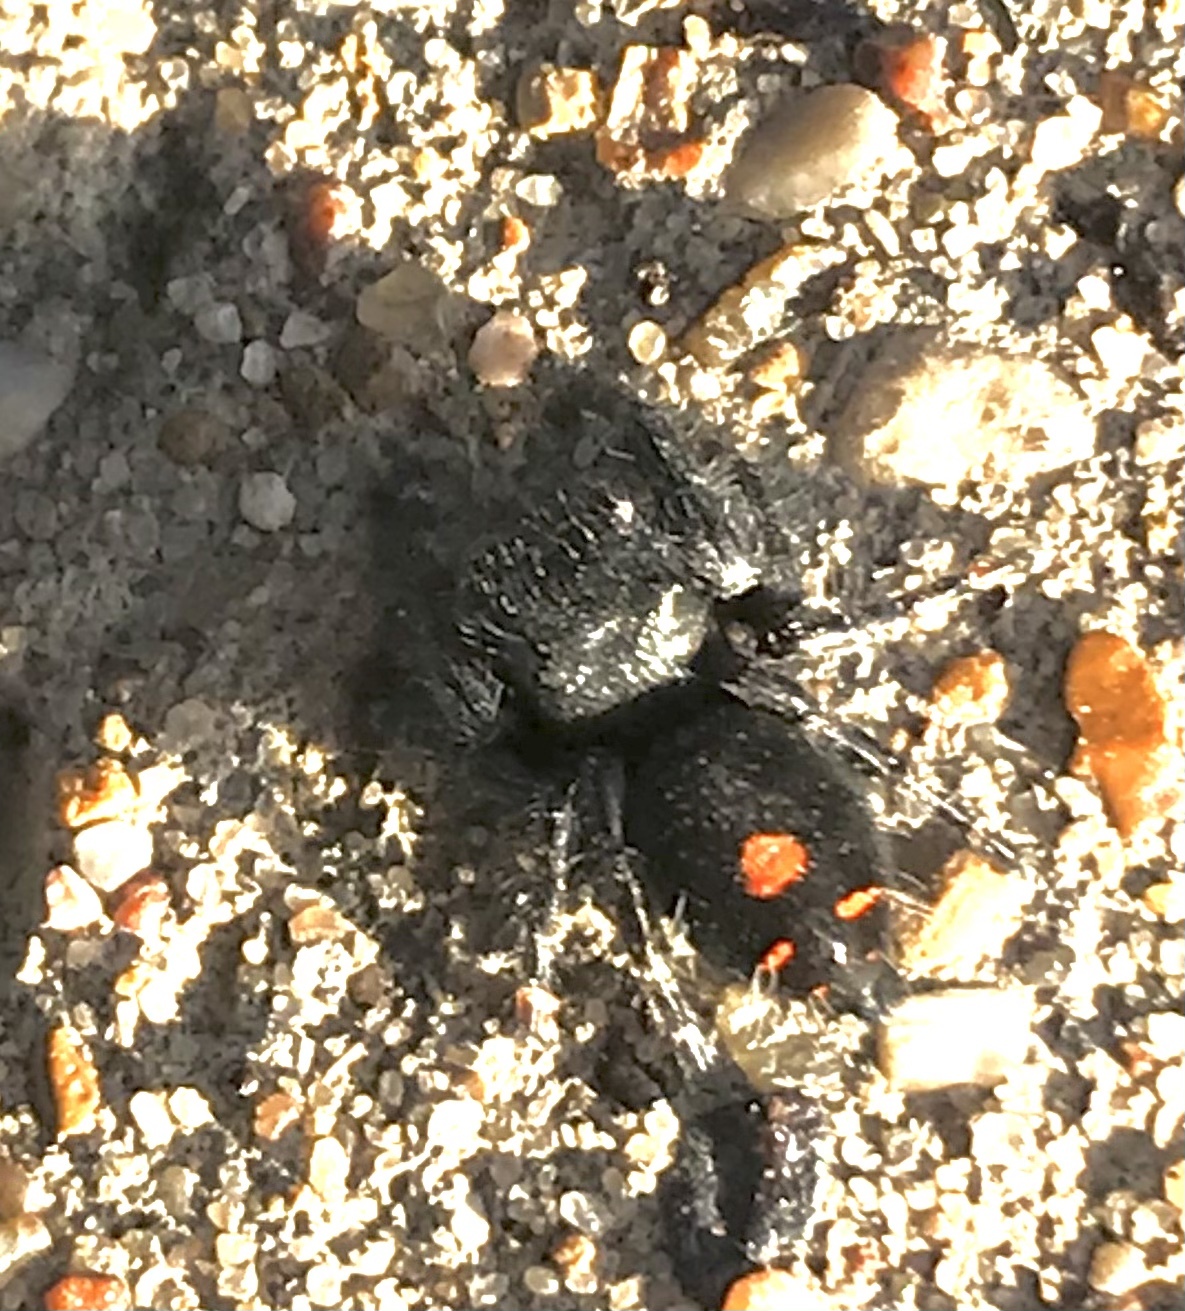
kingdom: Animalia
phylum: Arthropoda
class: Arachnida
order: Araneae
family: Salticidae
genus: Phidippus
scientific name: Phidippus audax
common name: Bold jumper
